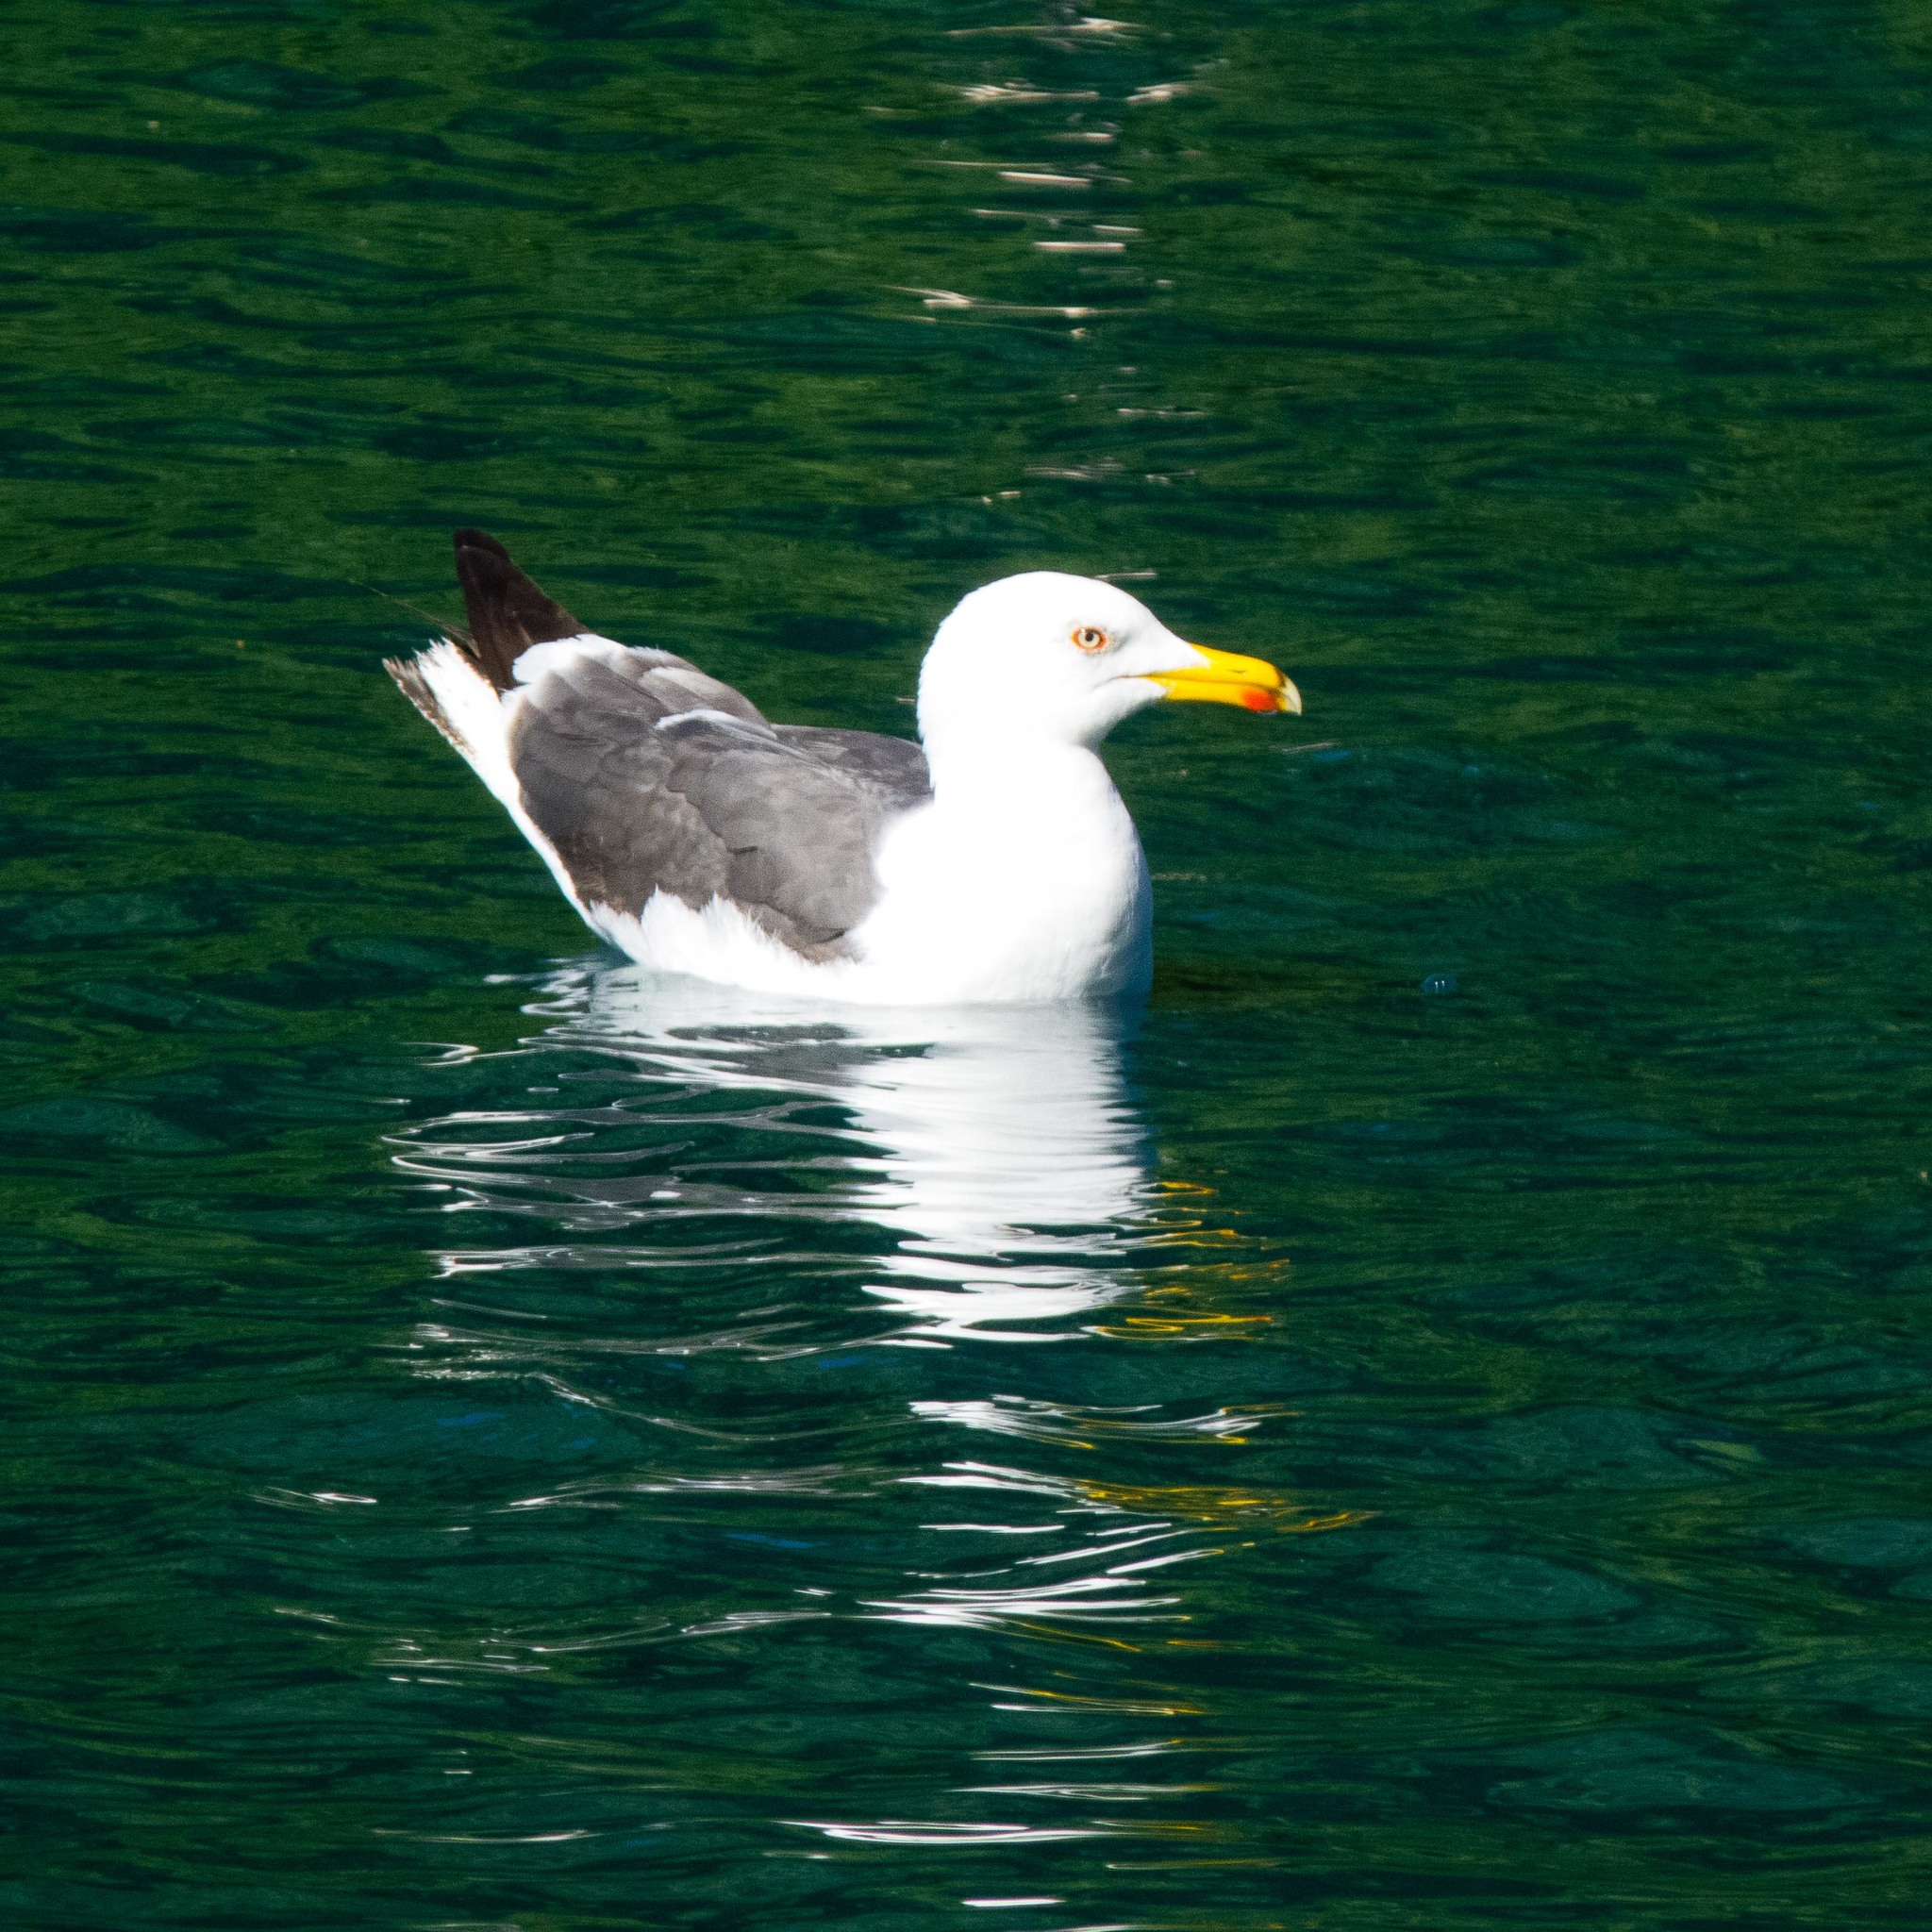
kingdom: Animalia
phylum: Chordata
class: Aves
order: Charadriiformes
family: Laridae
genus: Larus
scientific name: Larus fuscus
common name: Lesser black-backed gull
